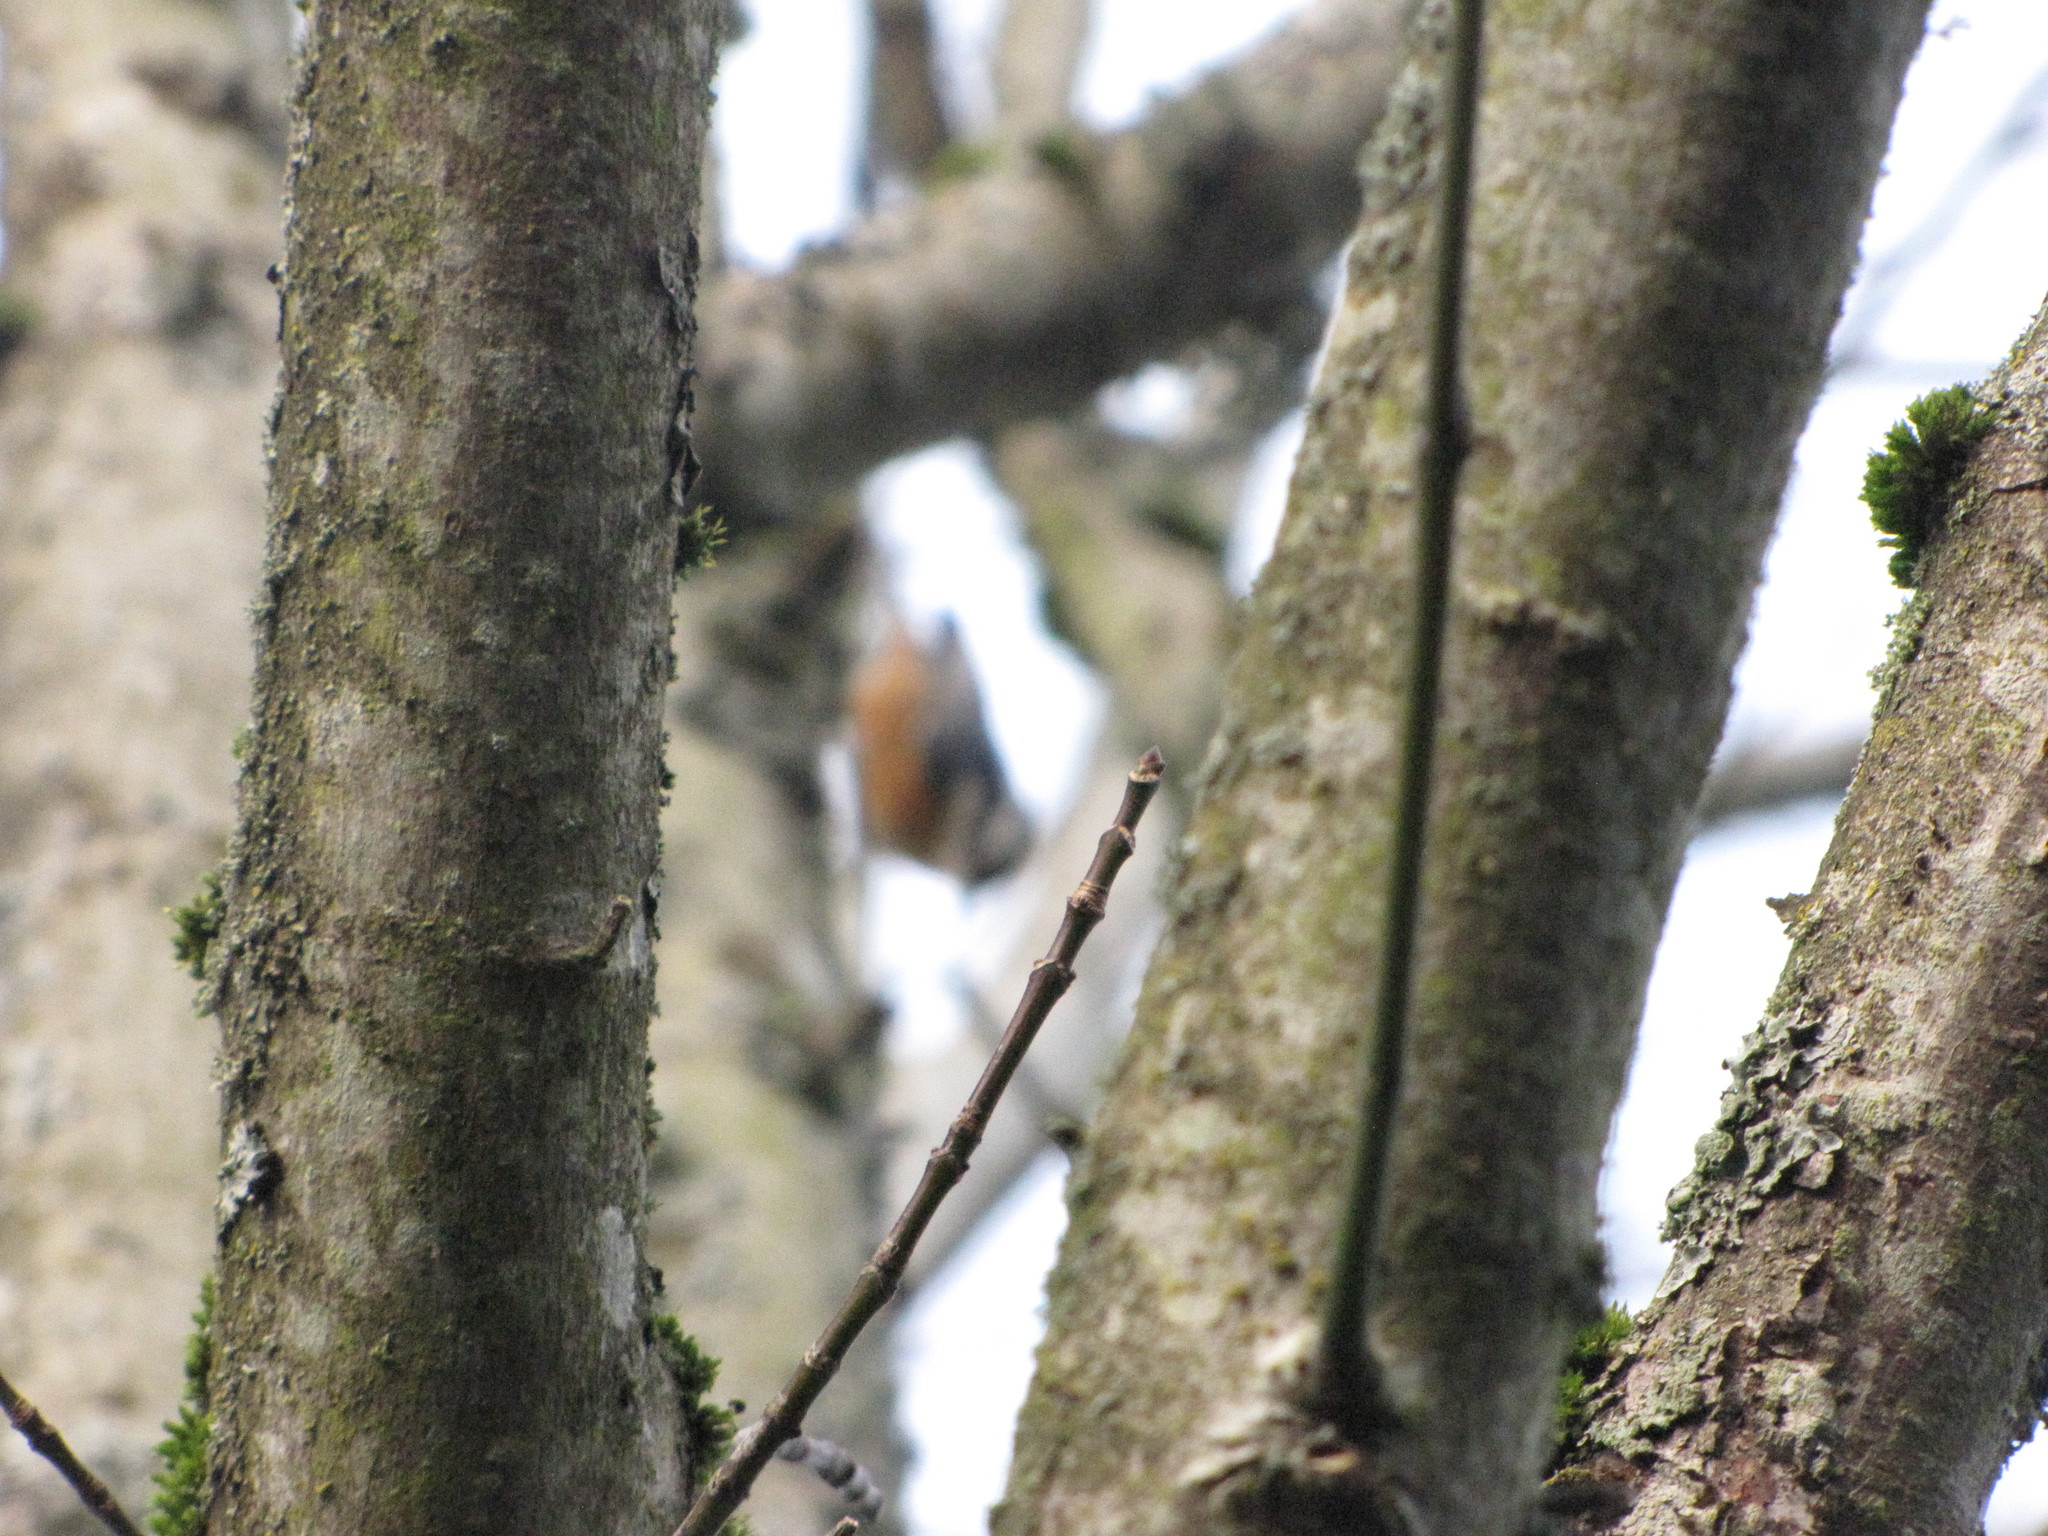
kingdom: Animalia
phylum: Chordata
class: Aves
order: Passeriformes
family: Sittidae
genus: Sitta
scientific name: Sitta canadensis
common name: Red-breasted nuthatch
